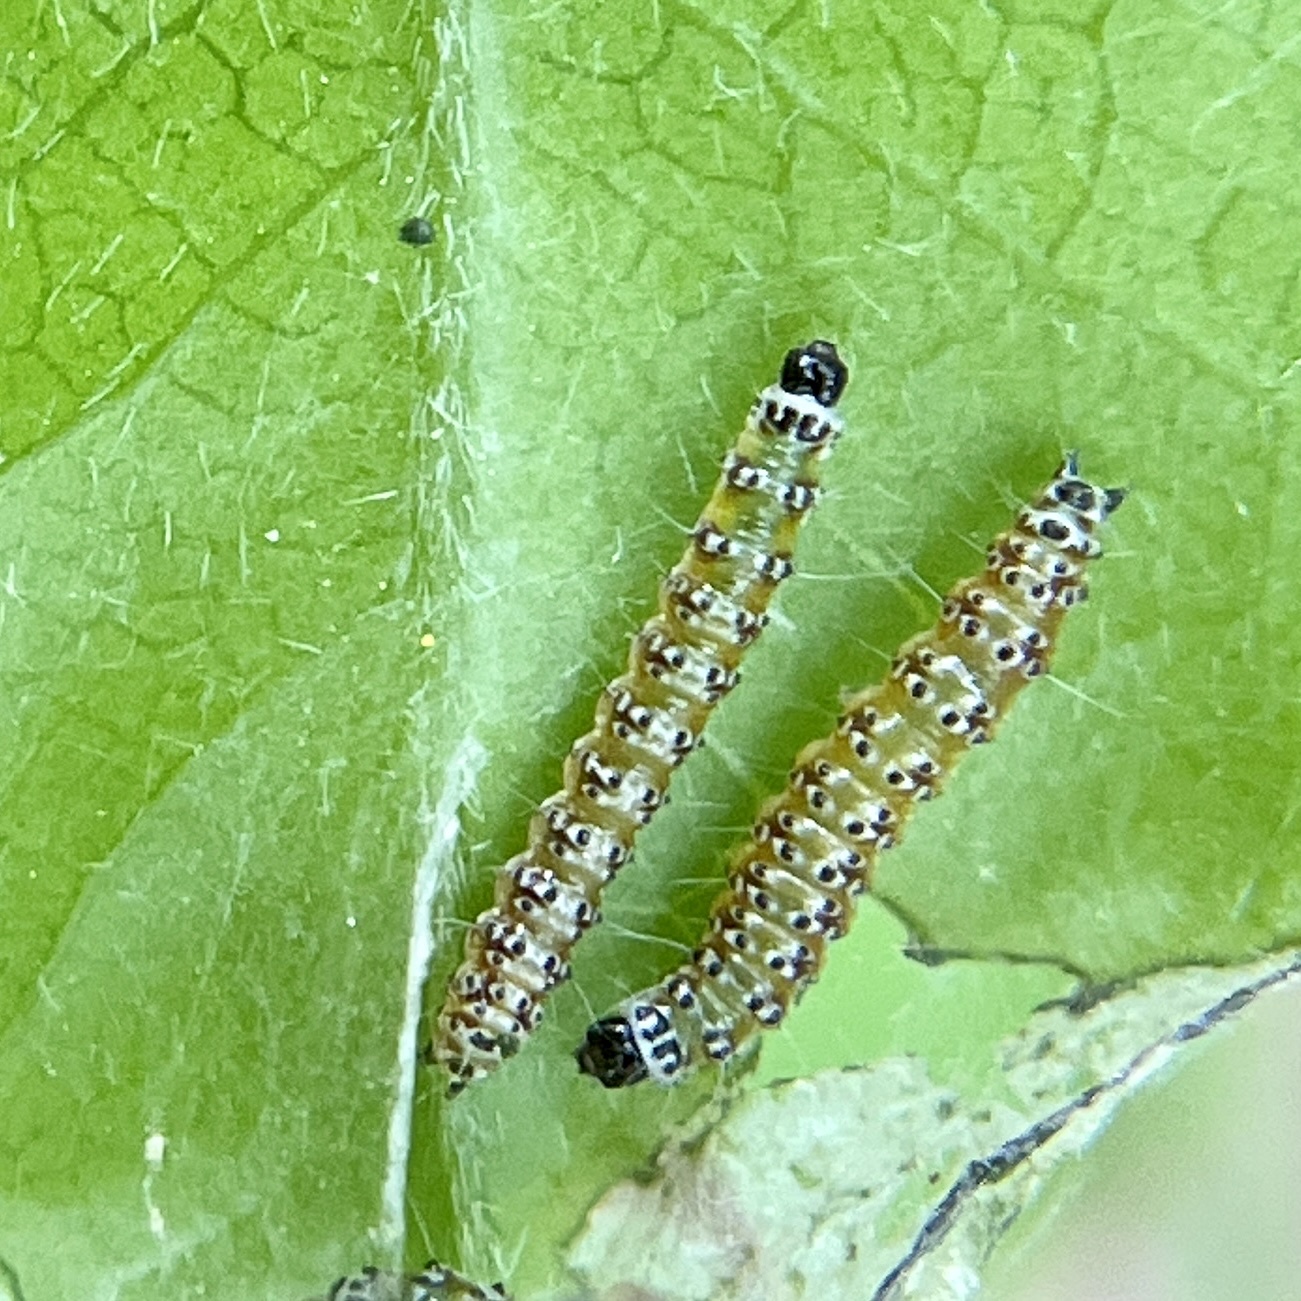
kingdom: Animalia
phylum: Arthropoda
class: Insecta
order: Lepidoptera
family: Crambidae
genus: Uresiphita
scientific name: Uresiphita reversalis
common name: Genista broom moth
